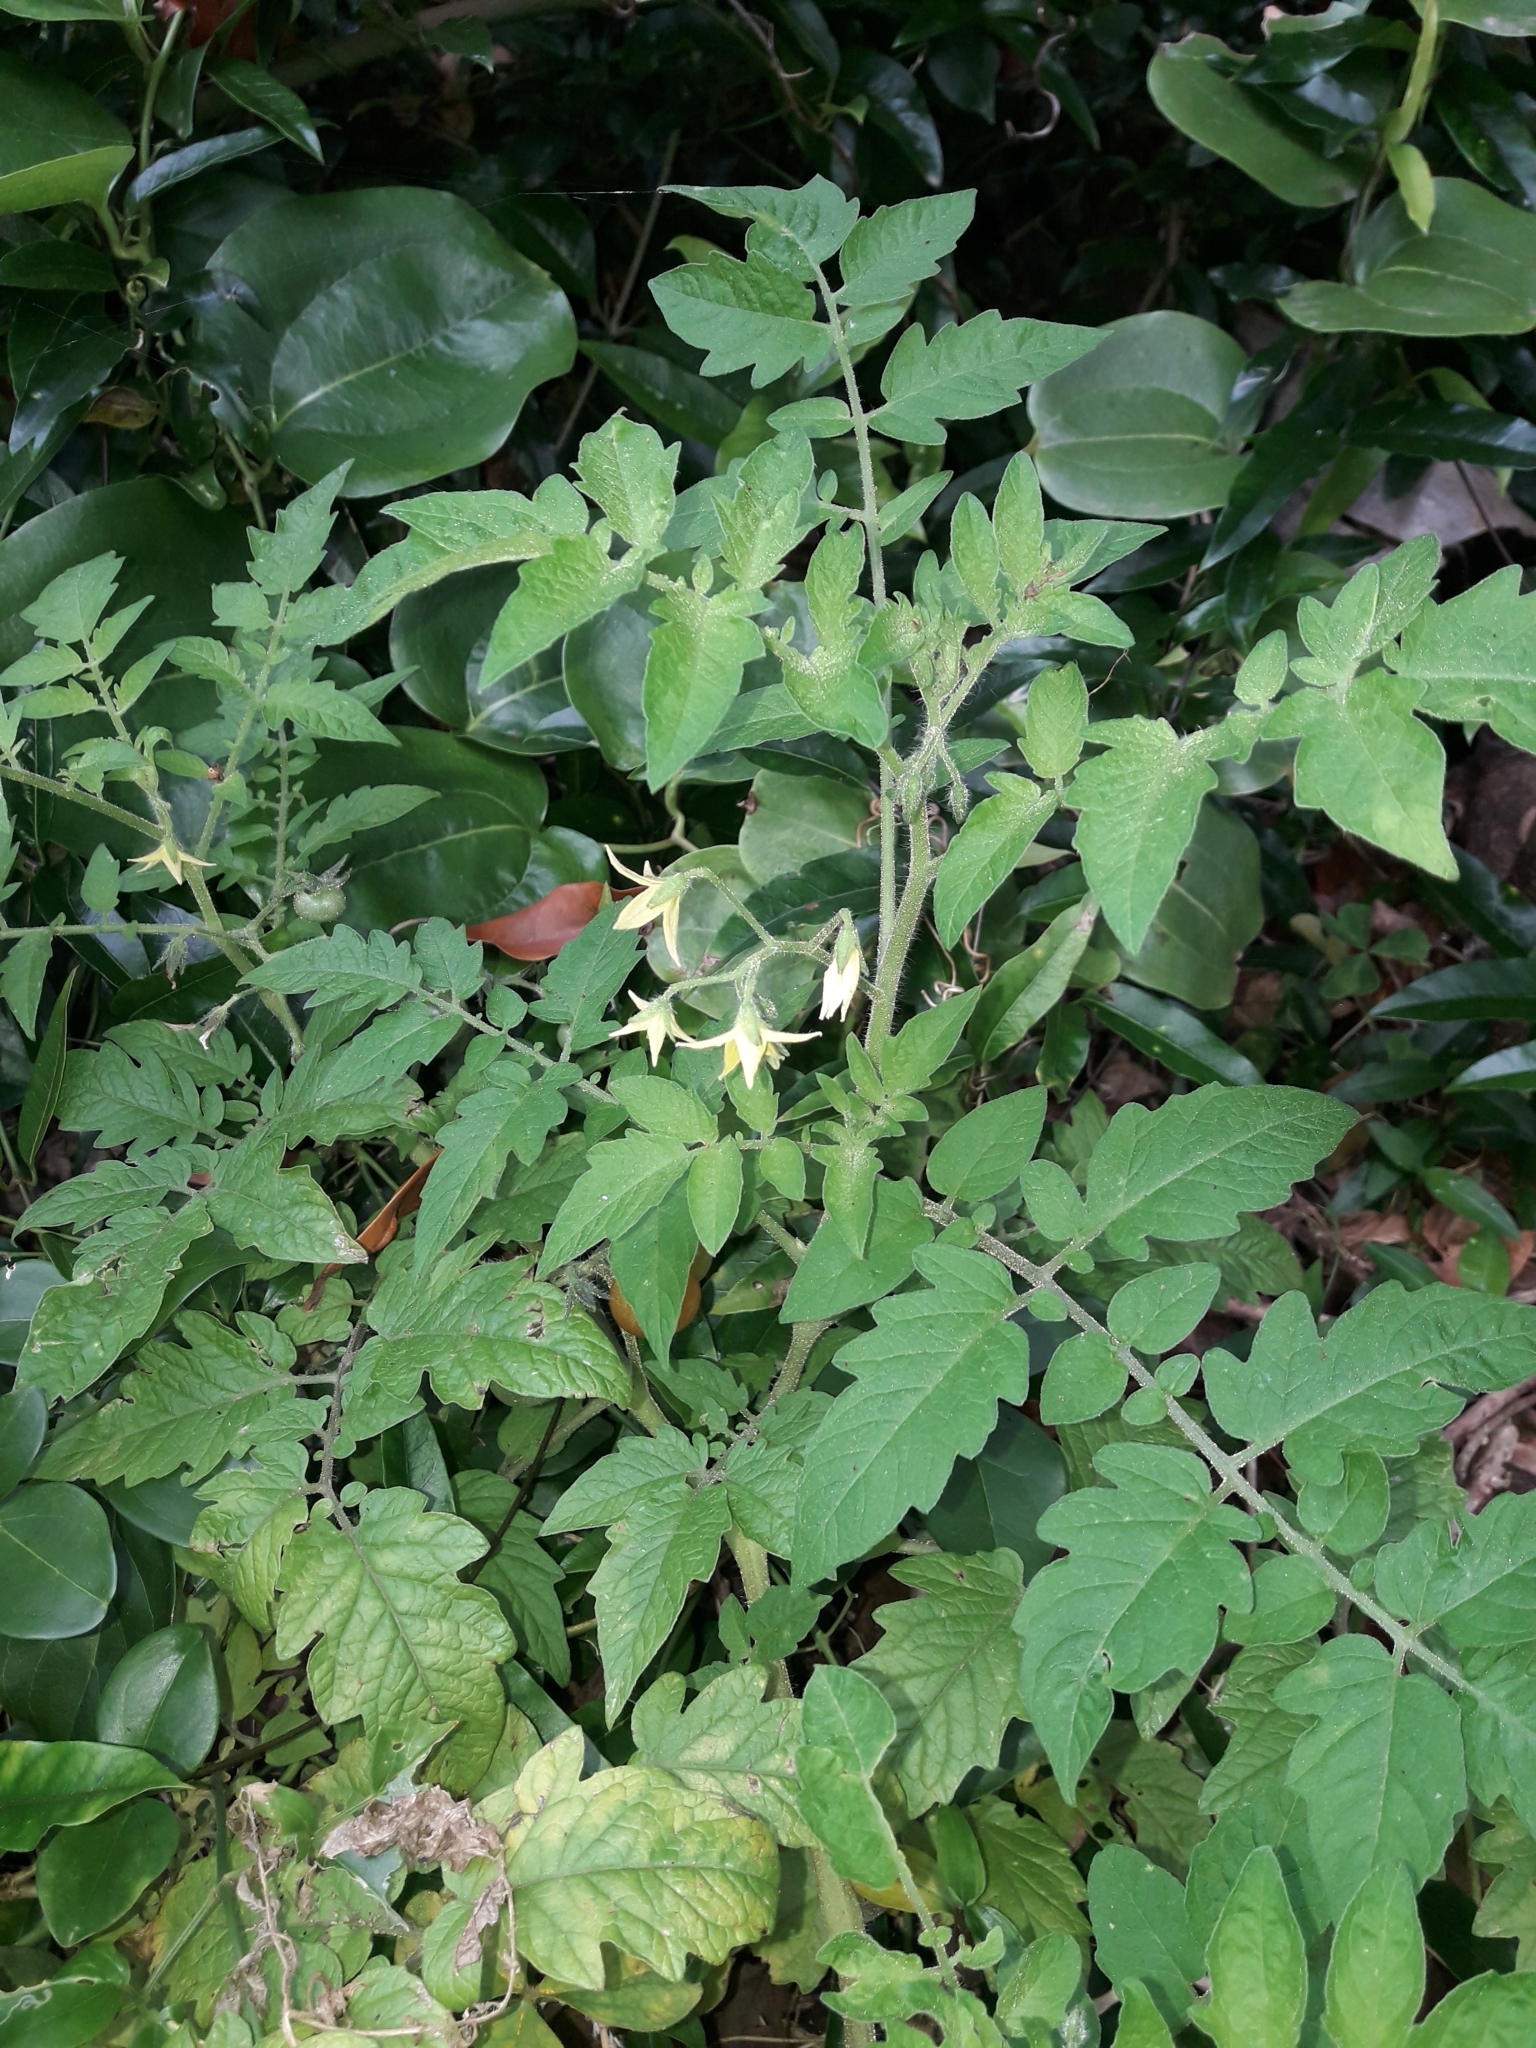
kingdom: Plantae
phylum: Tracheophyta
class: Magnoliopsida
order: Solanales
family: Solanaceae
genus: Solanum
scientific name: Solanum lycopersicum
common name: Garden tomato
